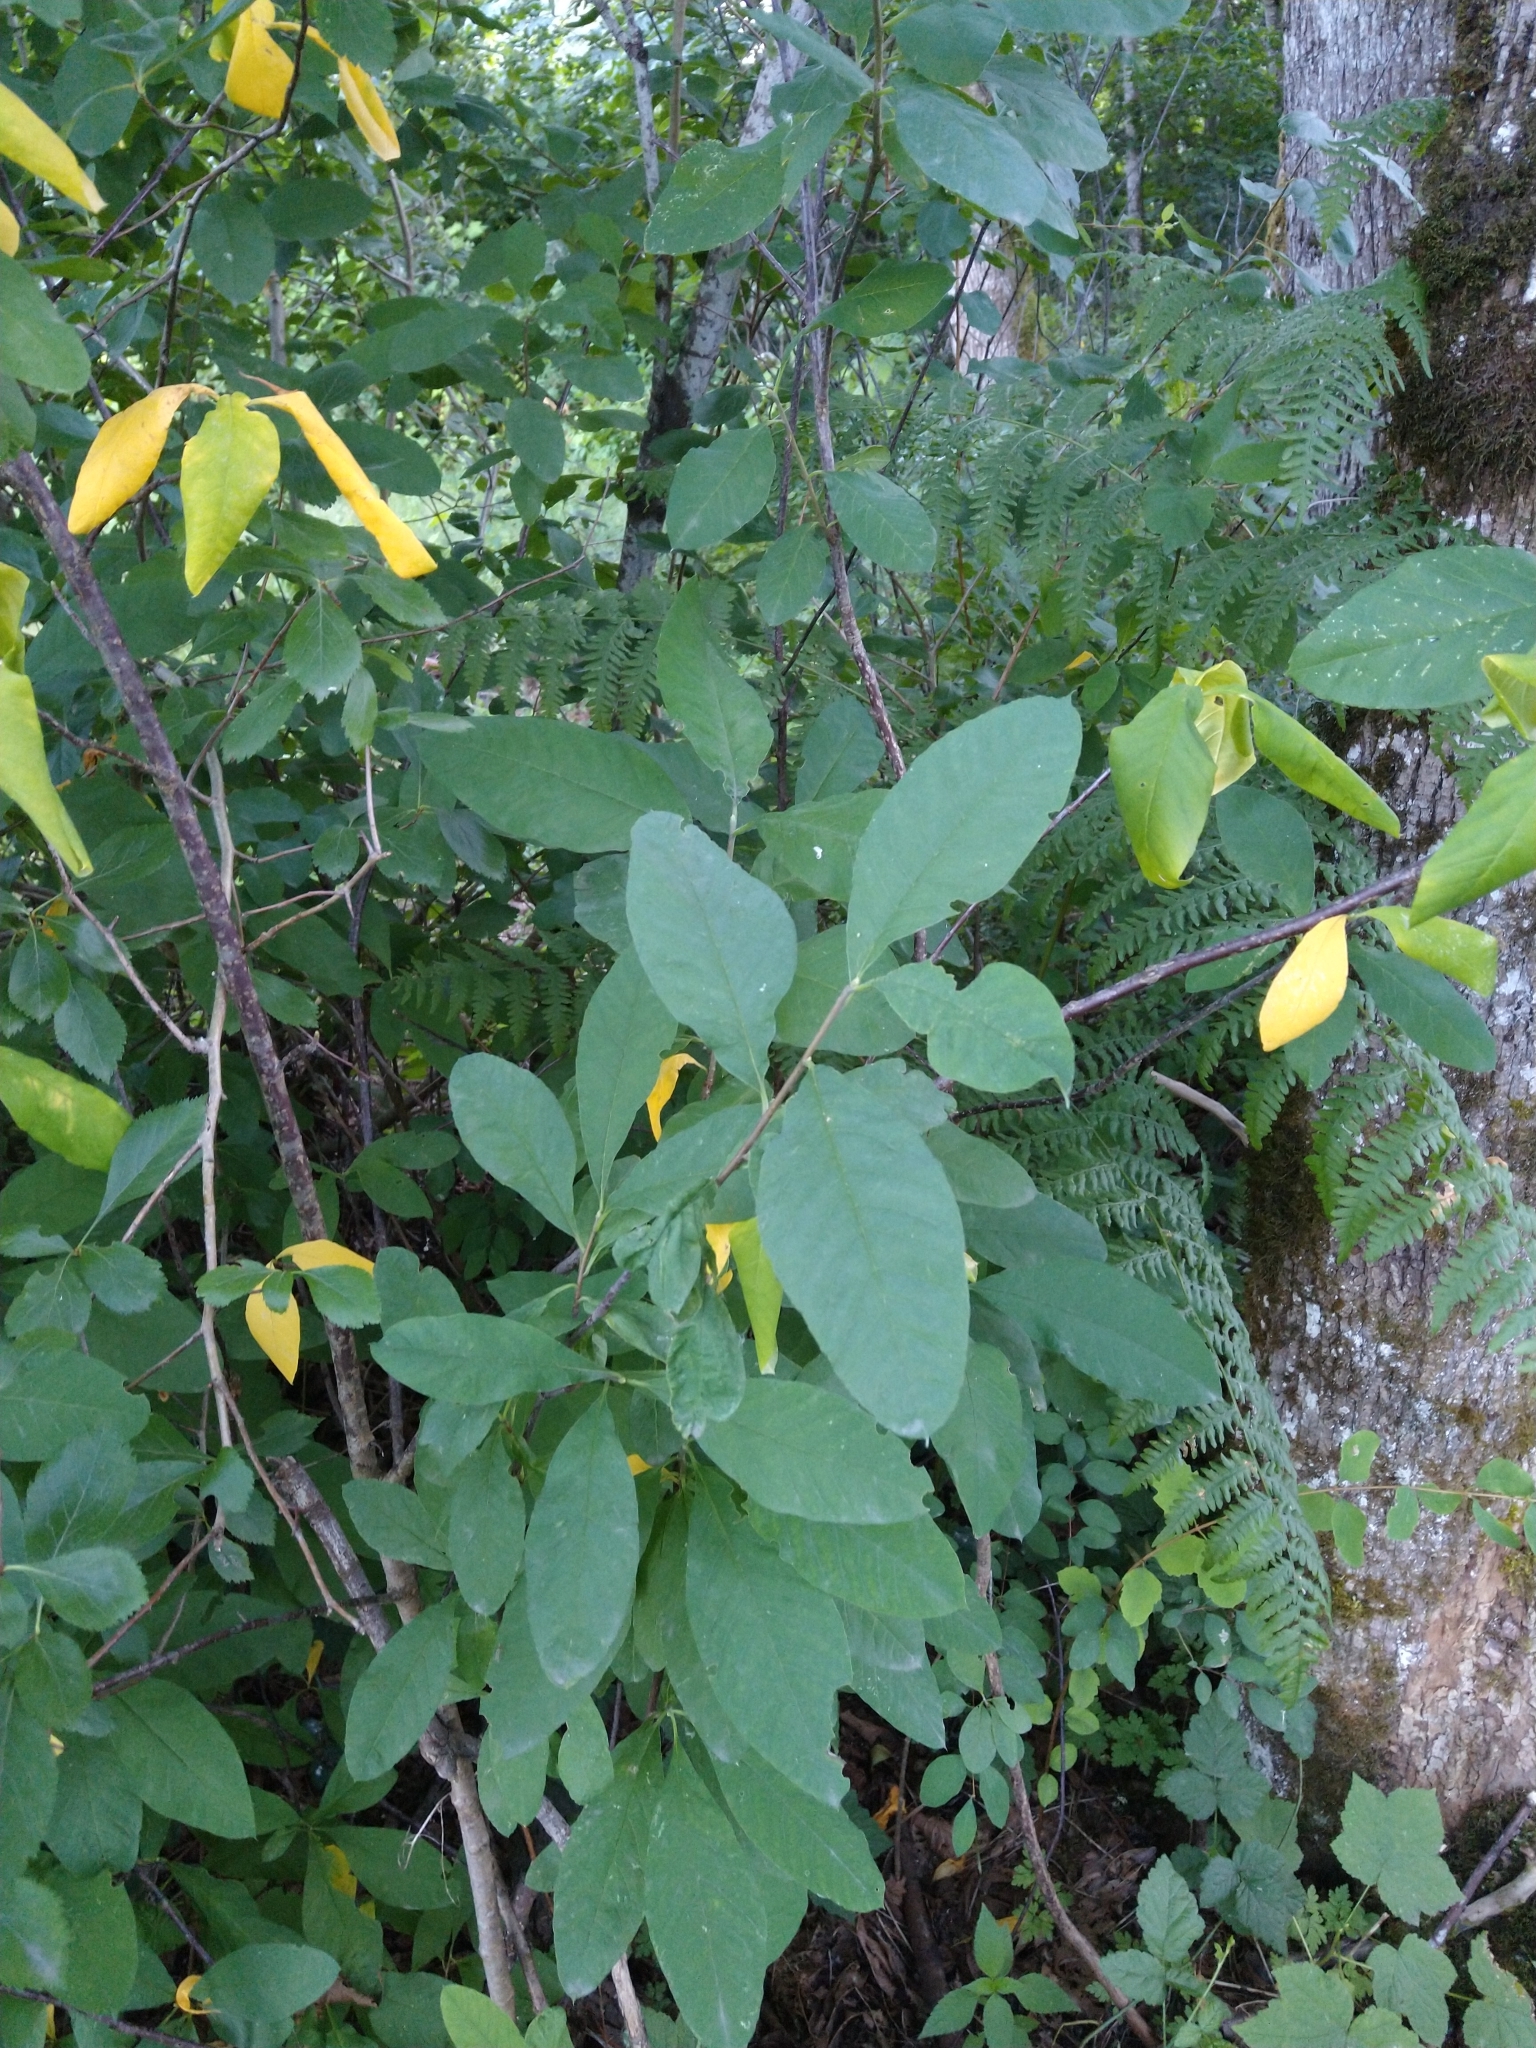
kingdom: Plantae
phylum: Tracheophyta
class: Magnoliopsida
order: Rosales
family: Rosaceae
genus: Oemleria
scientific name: Oemleria cerasiformis
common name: Osoberry
